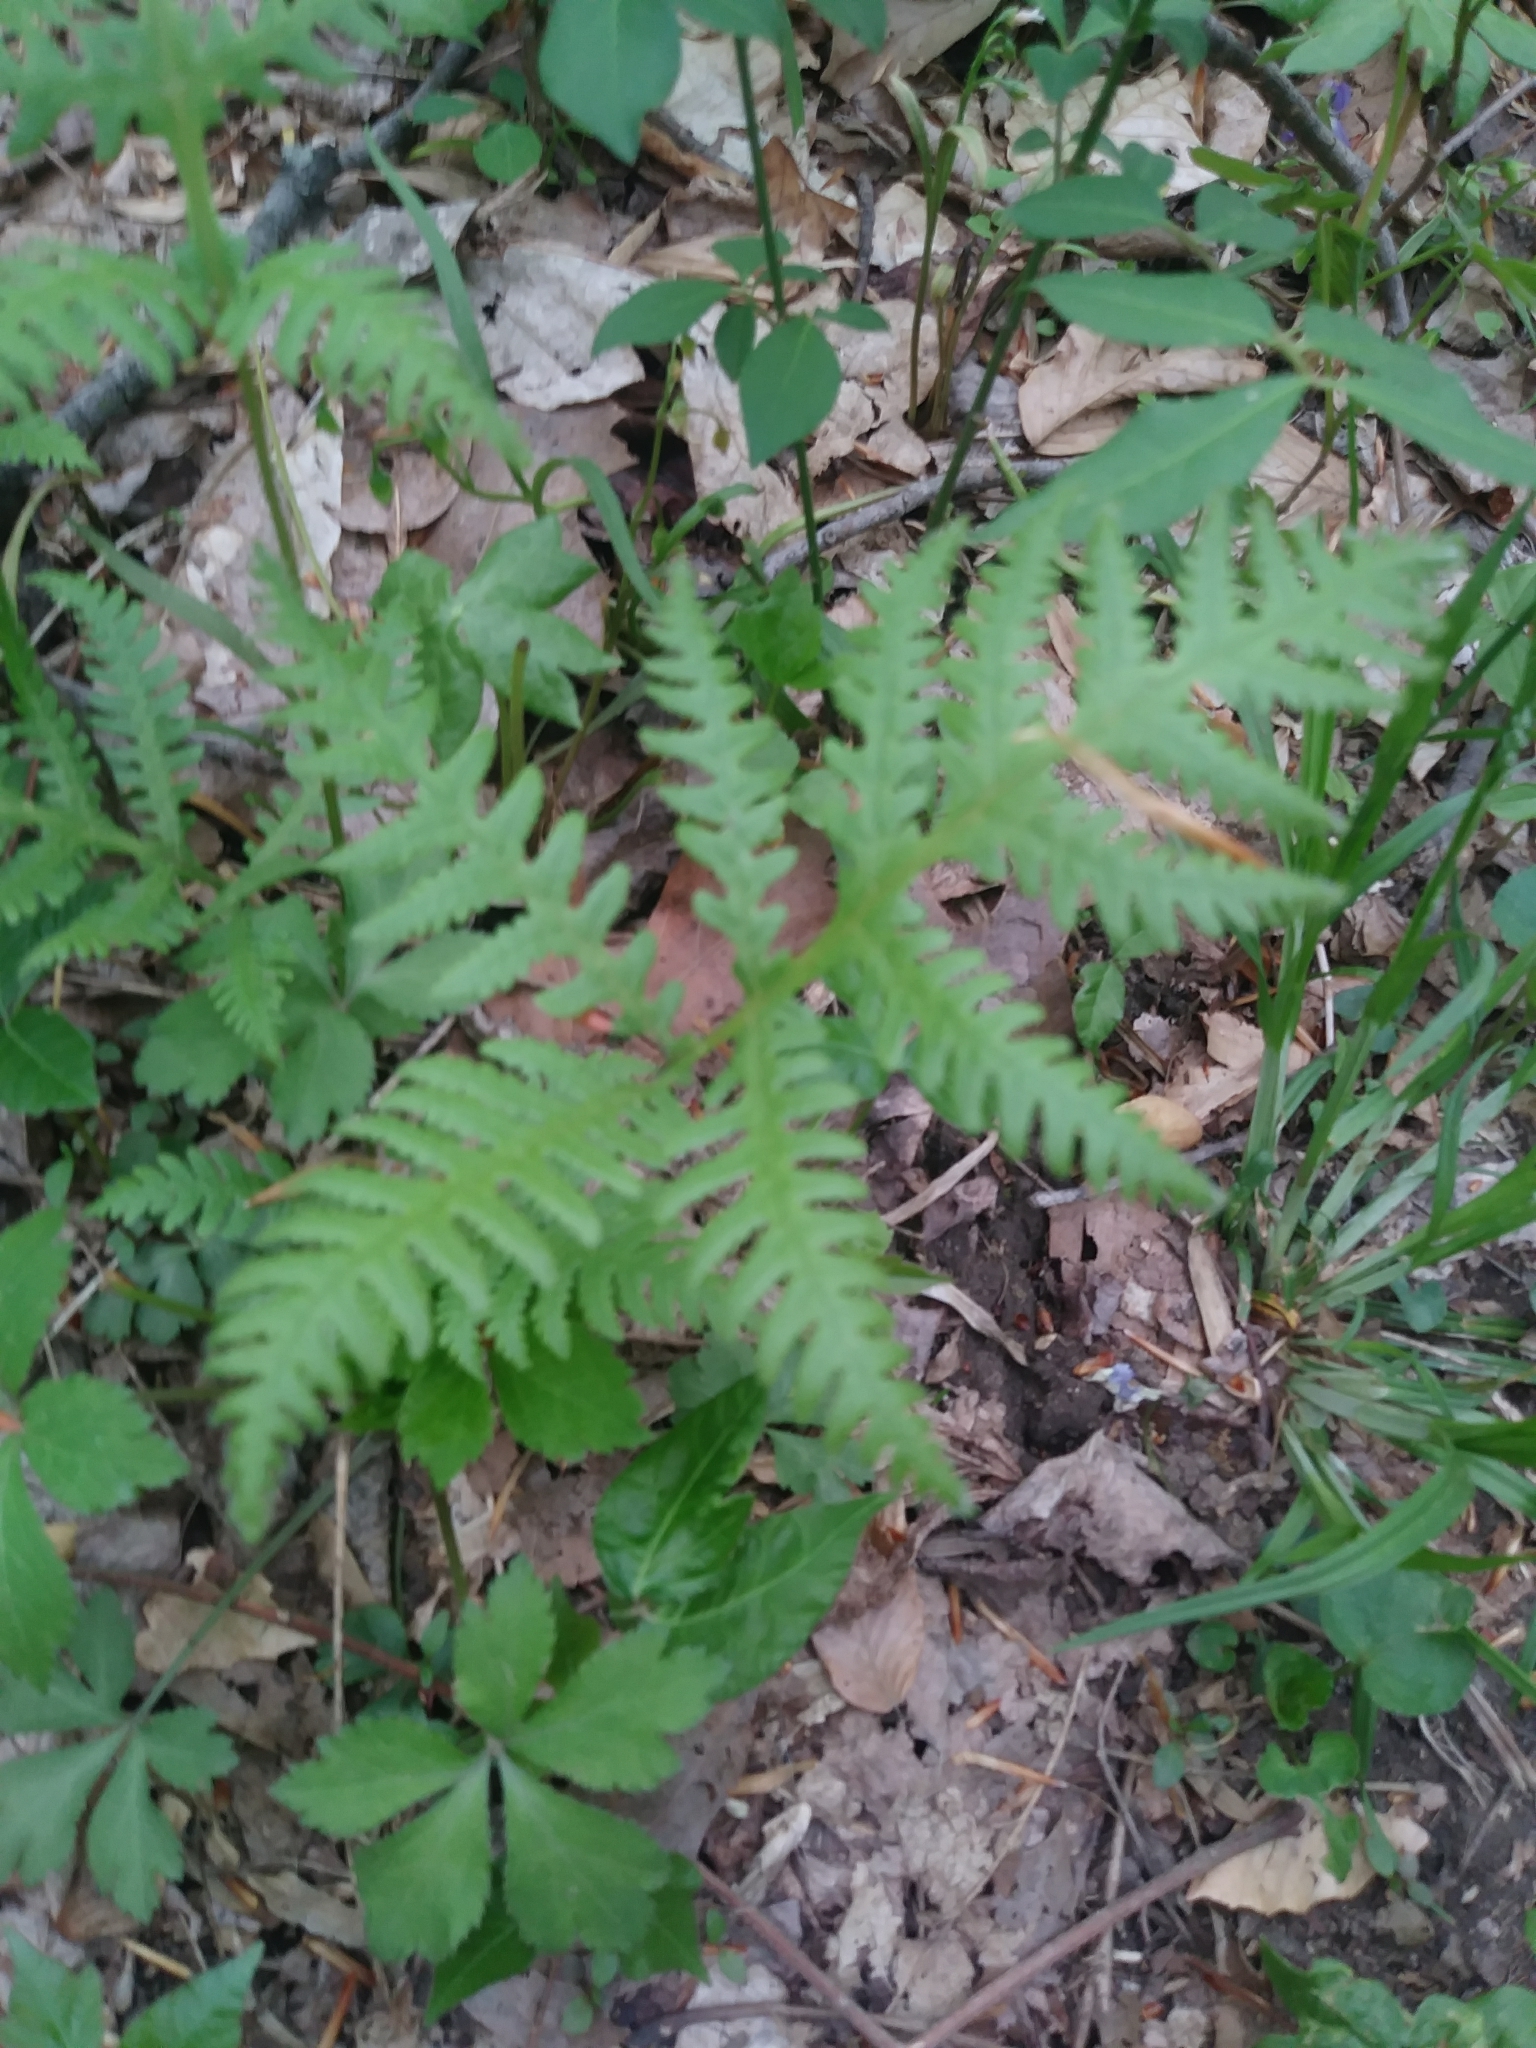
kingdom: Plantae
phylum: Tracheophyta
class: Polypodiopsida
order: Polypodiales
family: Thelypteridaceae
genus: Phegopteris
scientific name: Phegopteris hexagonoptera
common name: Broad beech fern
